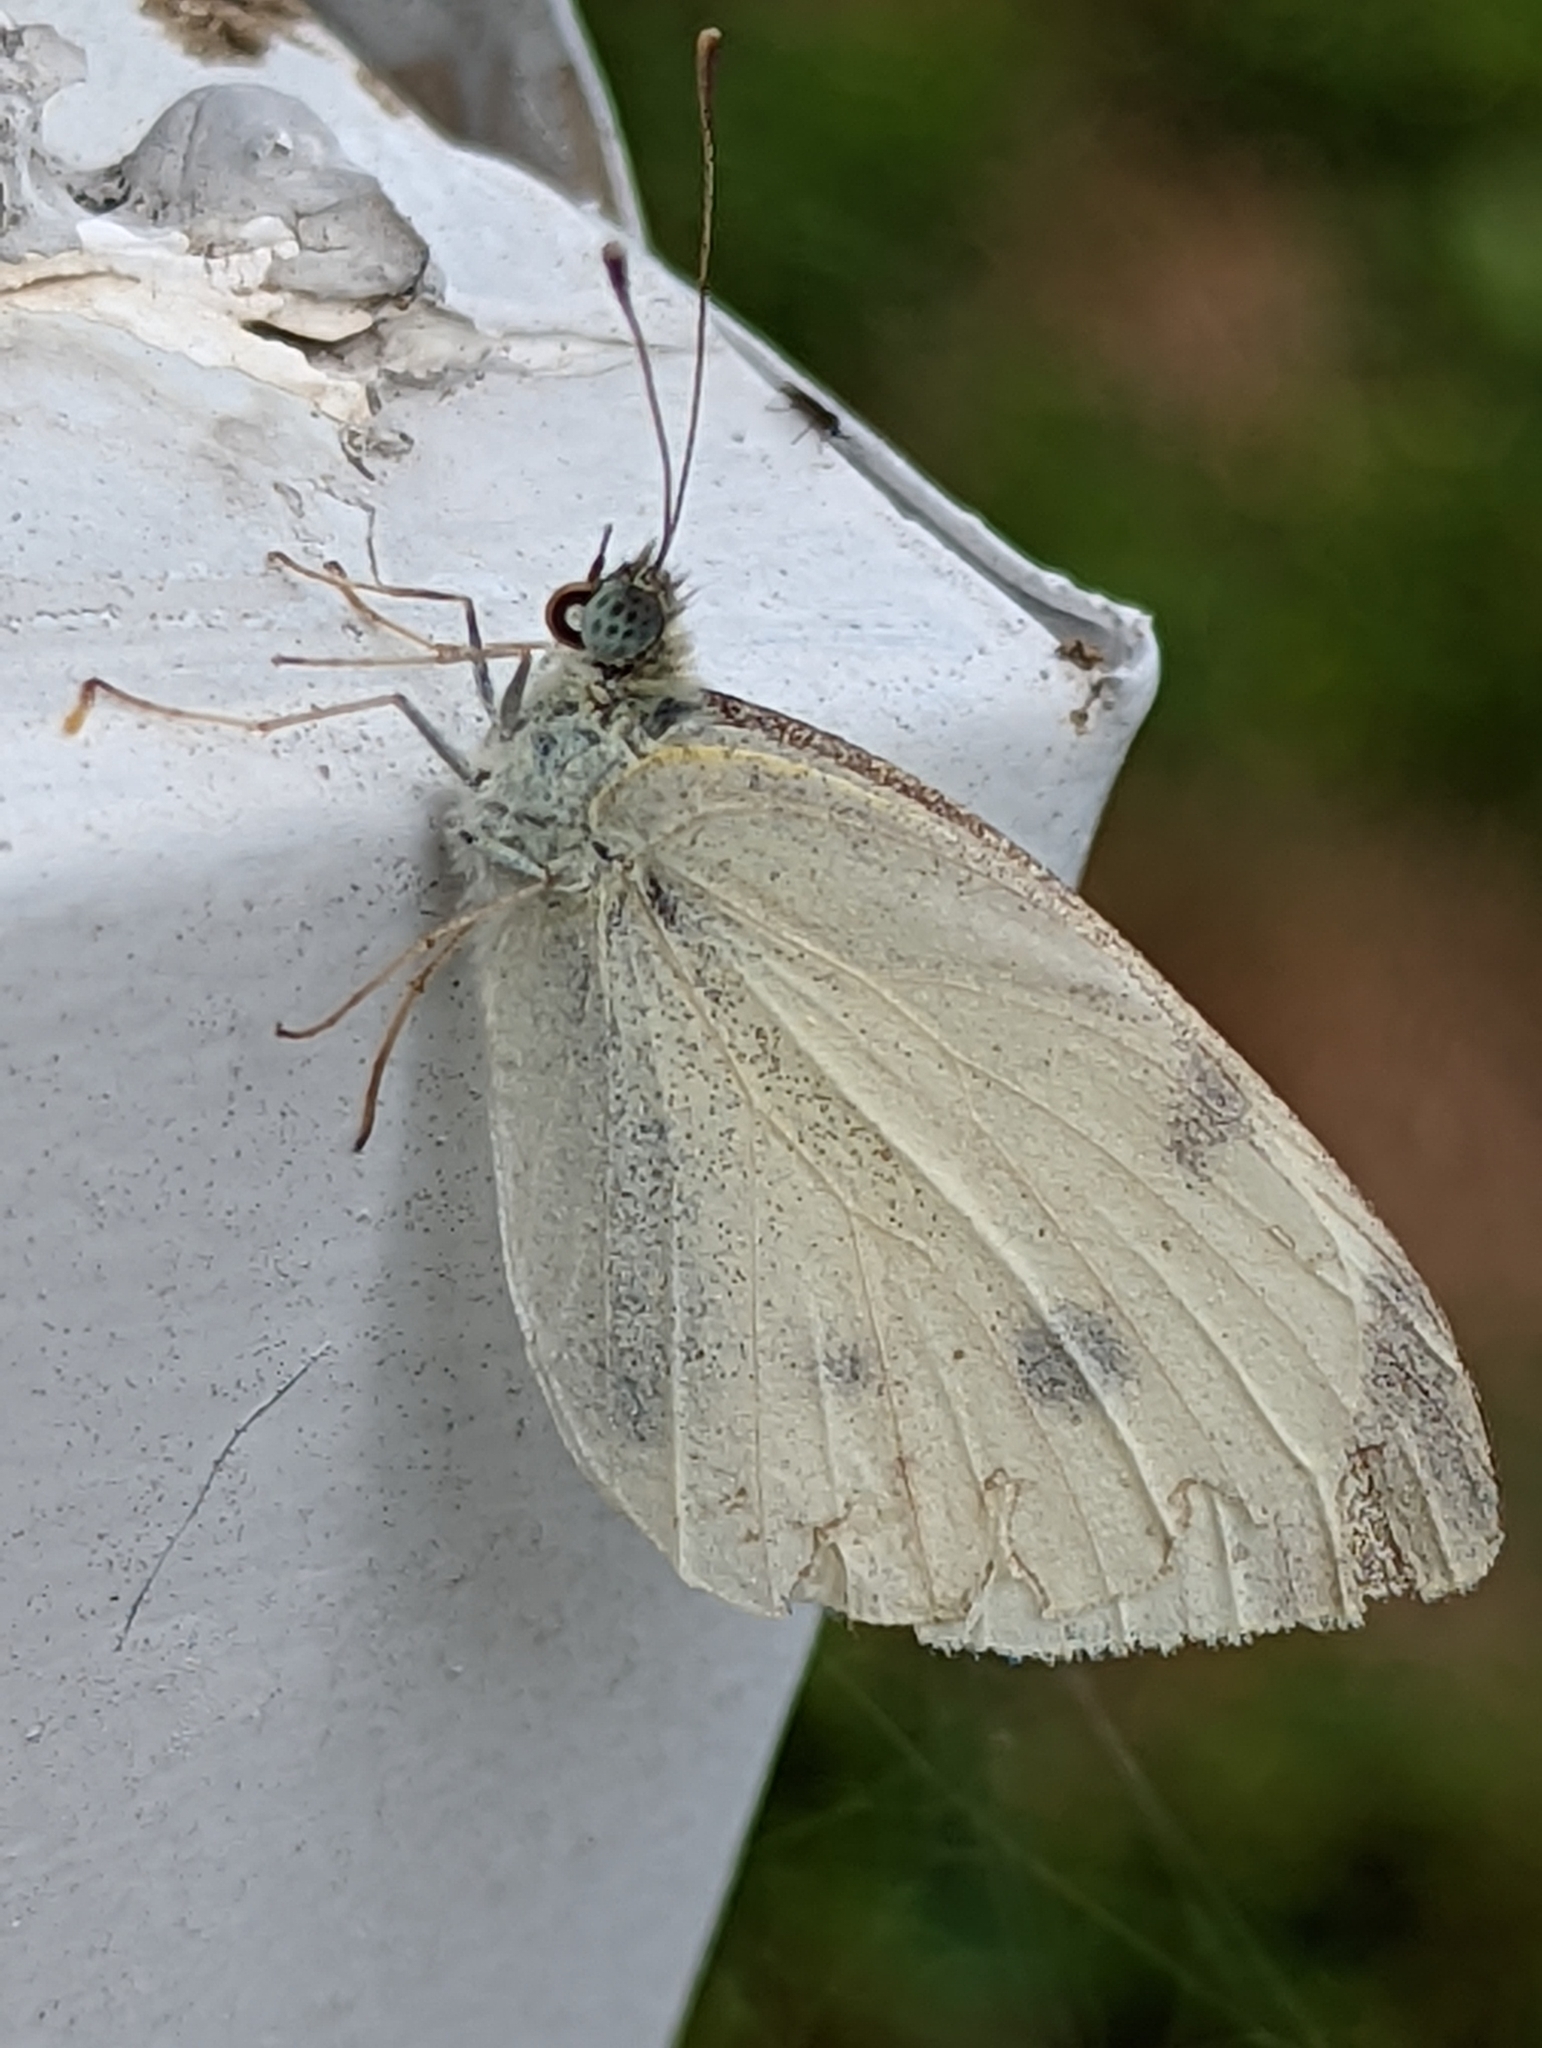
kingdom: Animalia
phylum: Arthropoda
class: Insecta
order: Lepidoptera
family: Pieridae
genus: Pieris
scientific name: Pieris rapae
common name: Small white
